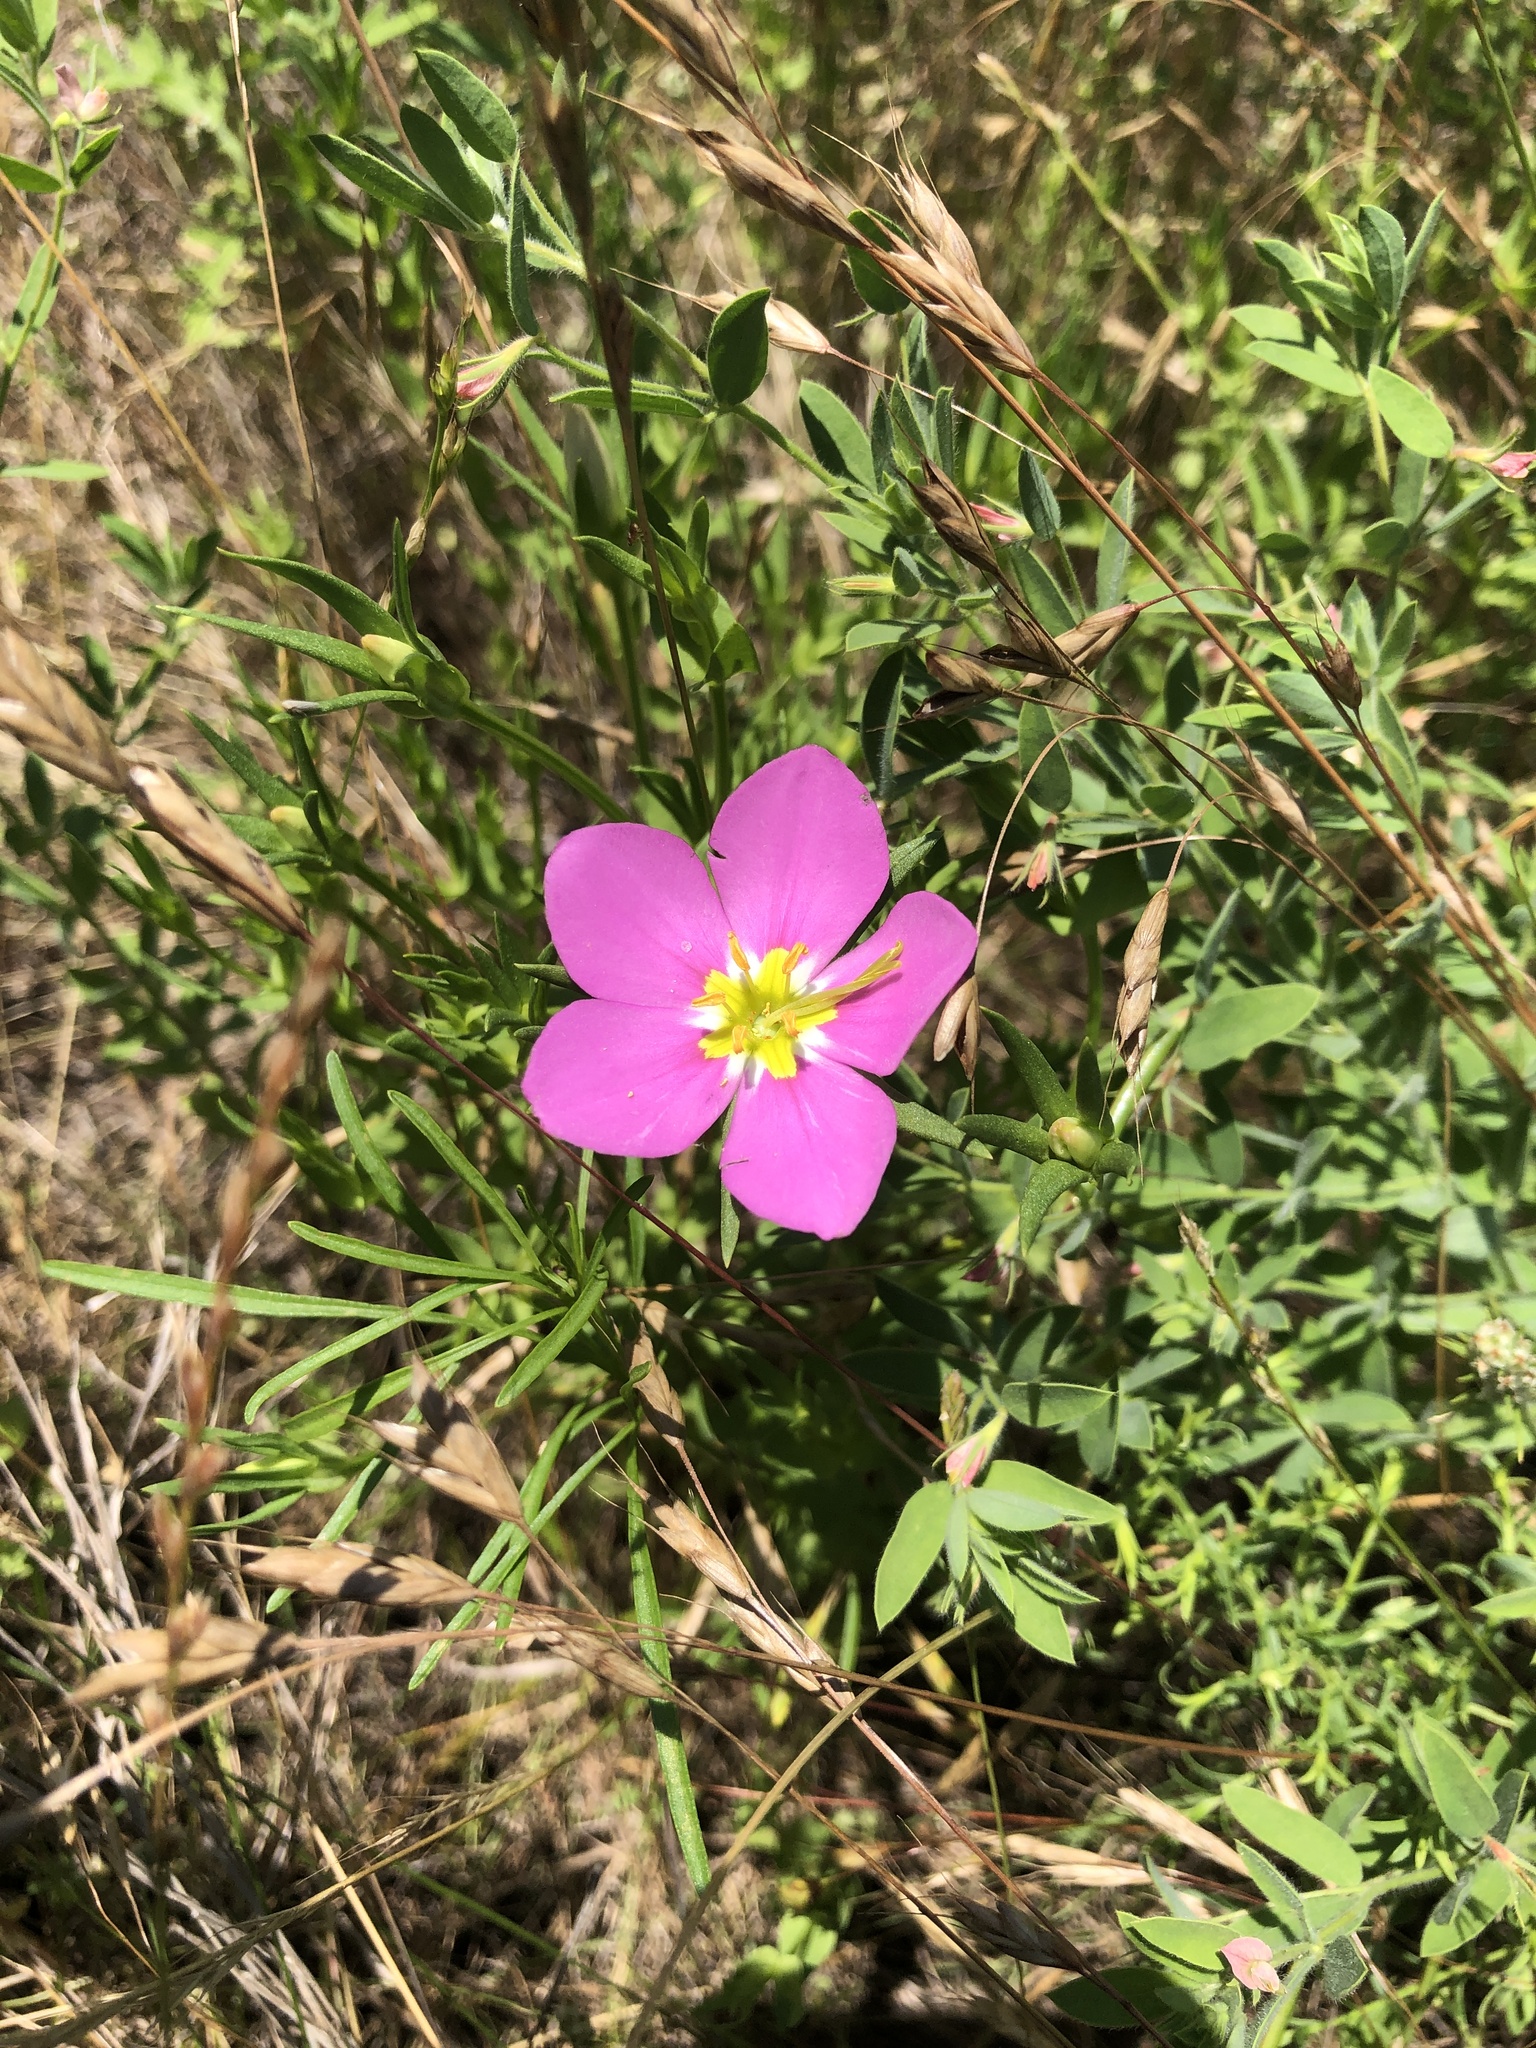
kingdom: Plantae
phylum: Tracheophyta
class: Magnoliopsida
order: Gentianales
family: Gentianaceae
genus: Sabatia
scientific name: Sabatia campestris
